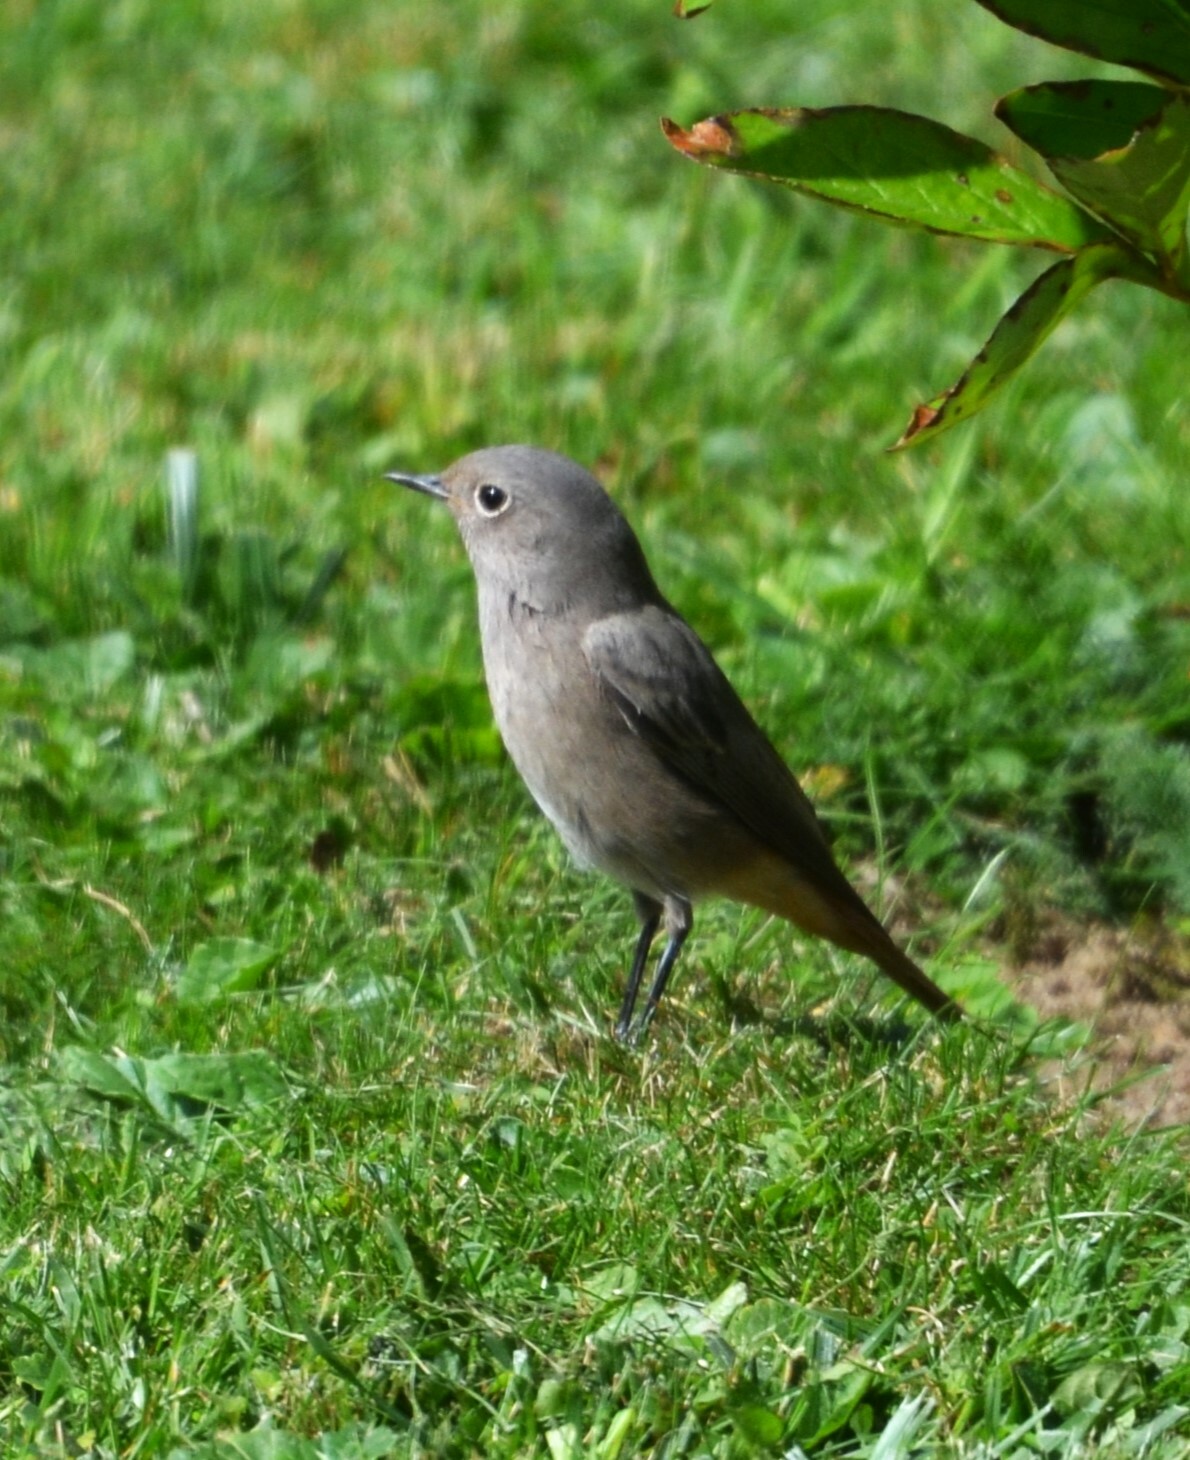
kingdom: Animalia
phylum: Chordata
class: Aves
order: Passeriformes
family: Muscicapidae
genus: Phoenicurus
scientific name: Phoenicurus ochruros
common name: Black redstart
